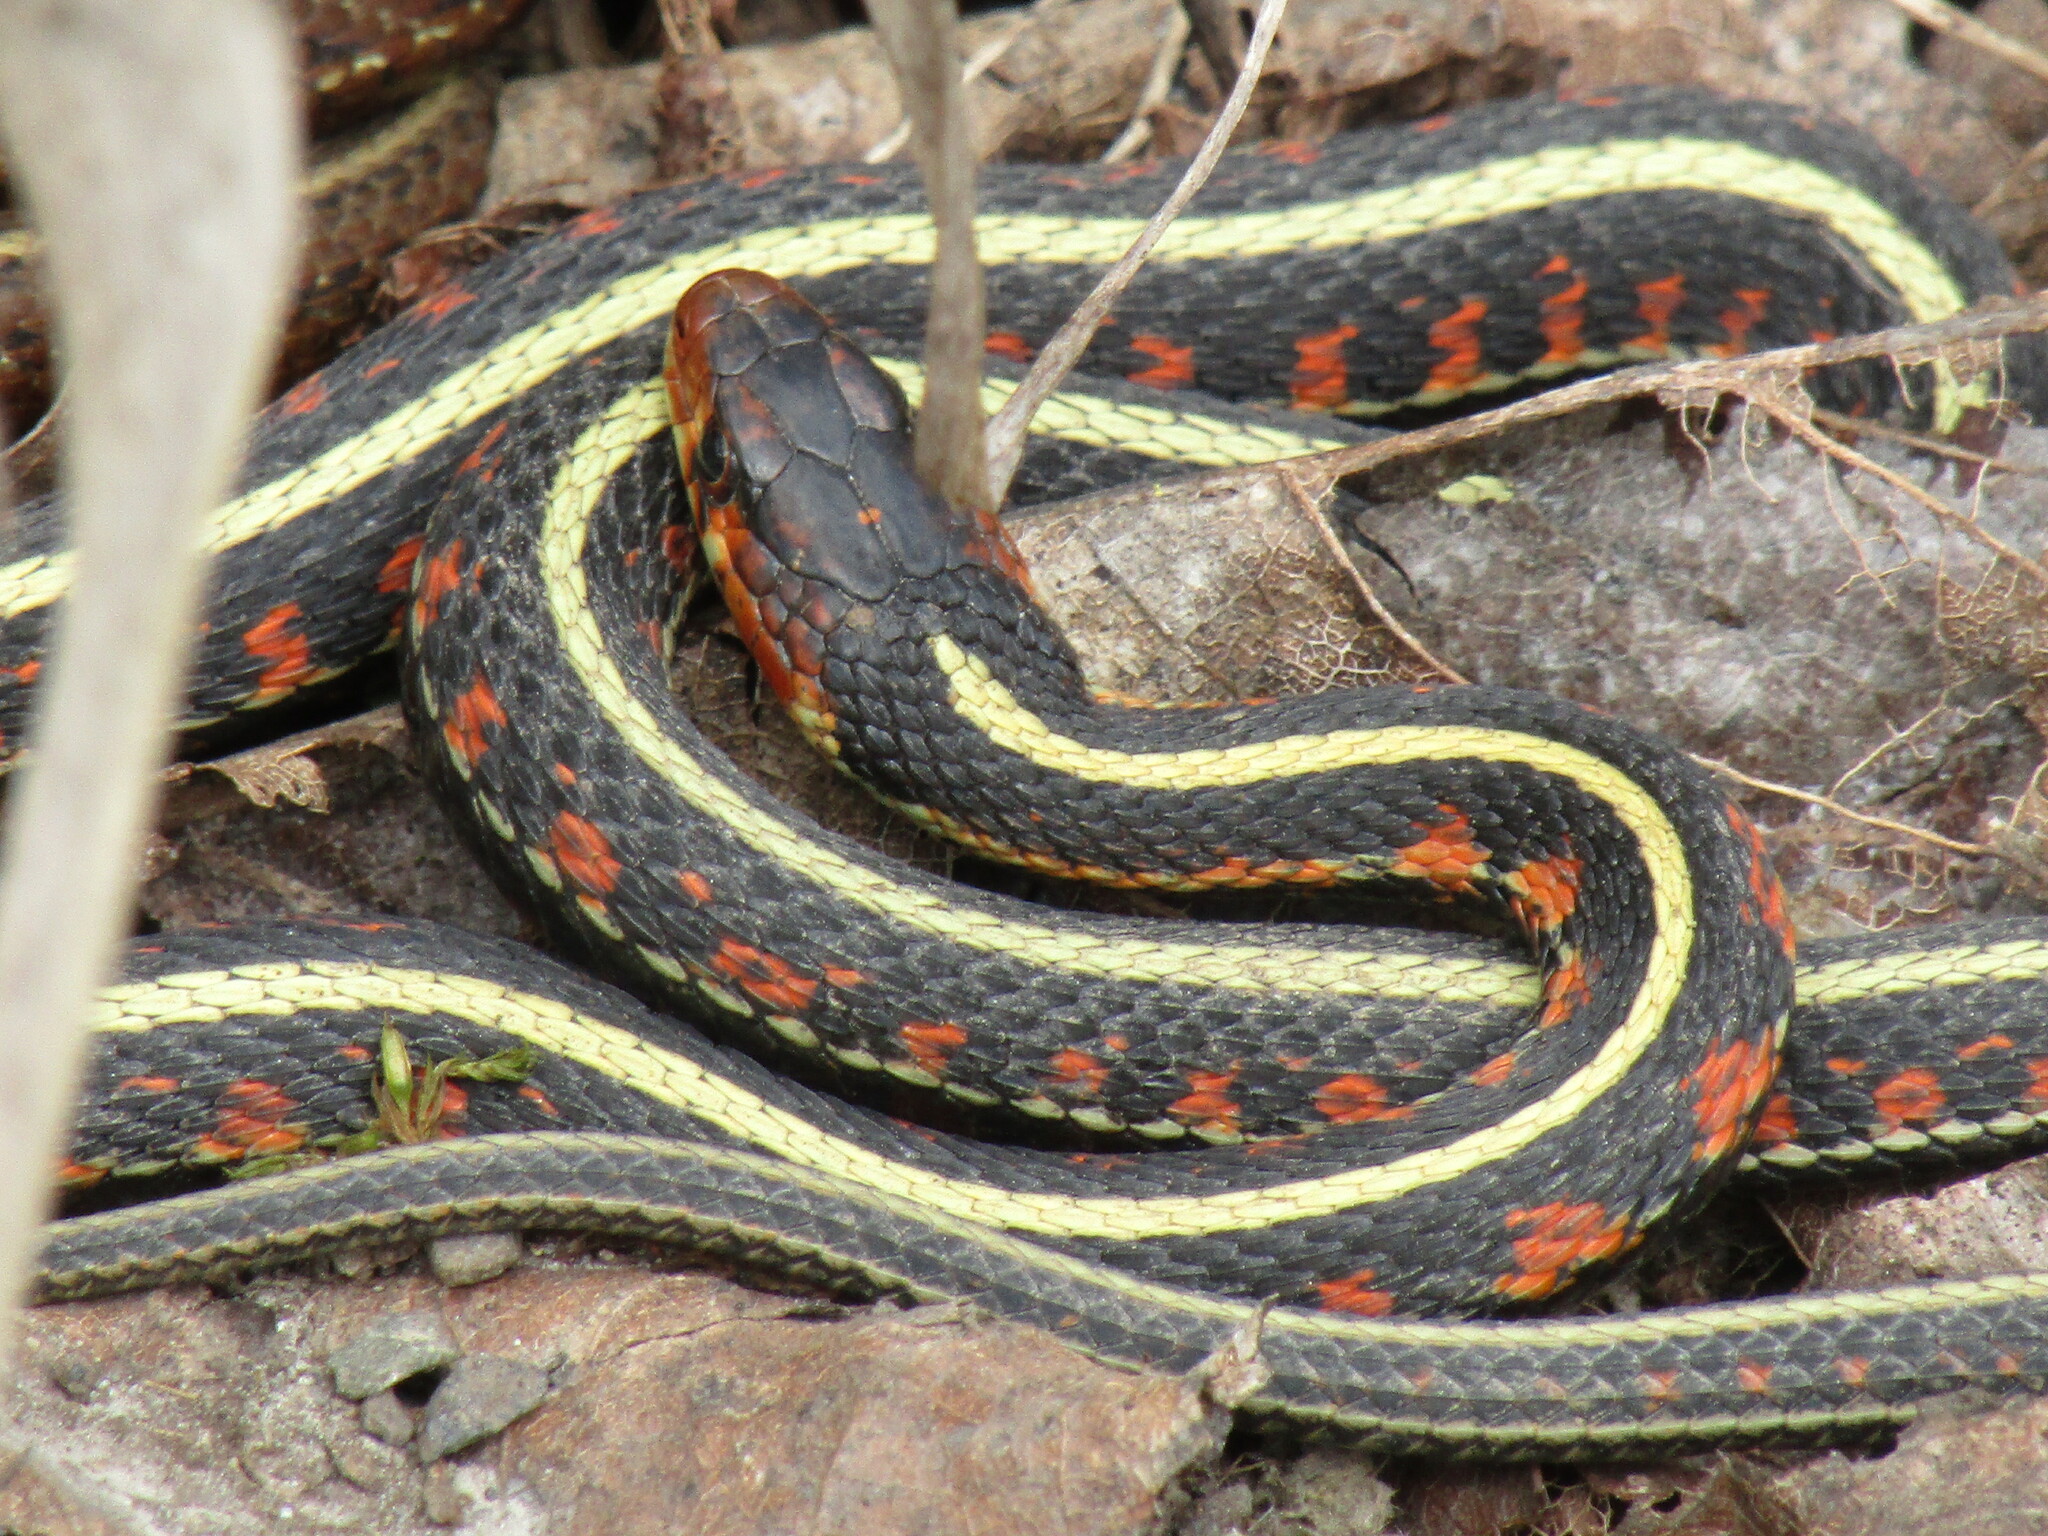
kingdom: Animalia
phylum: Chordata
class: Squamata
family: Colubridae
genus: Thamnophis
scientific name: Thamnophis sirtalis
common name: Common garter snake
